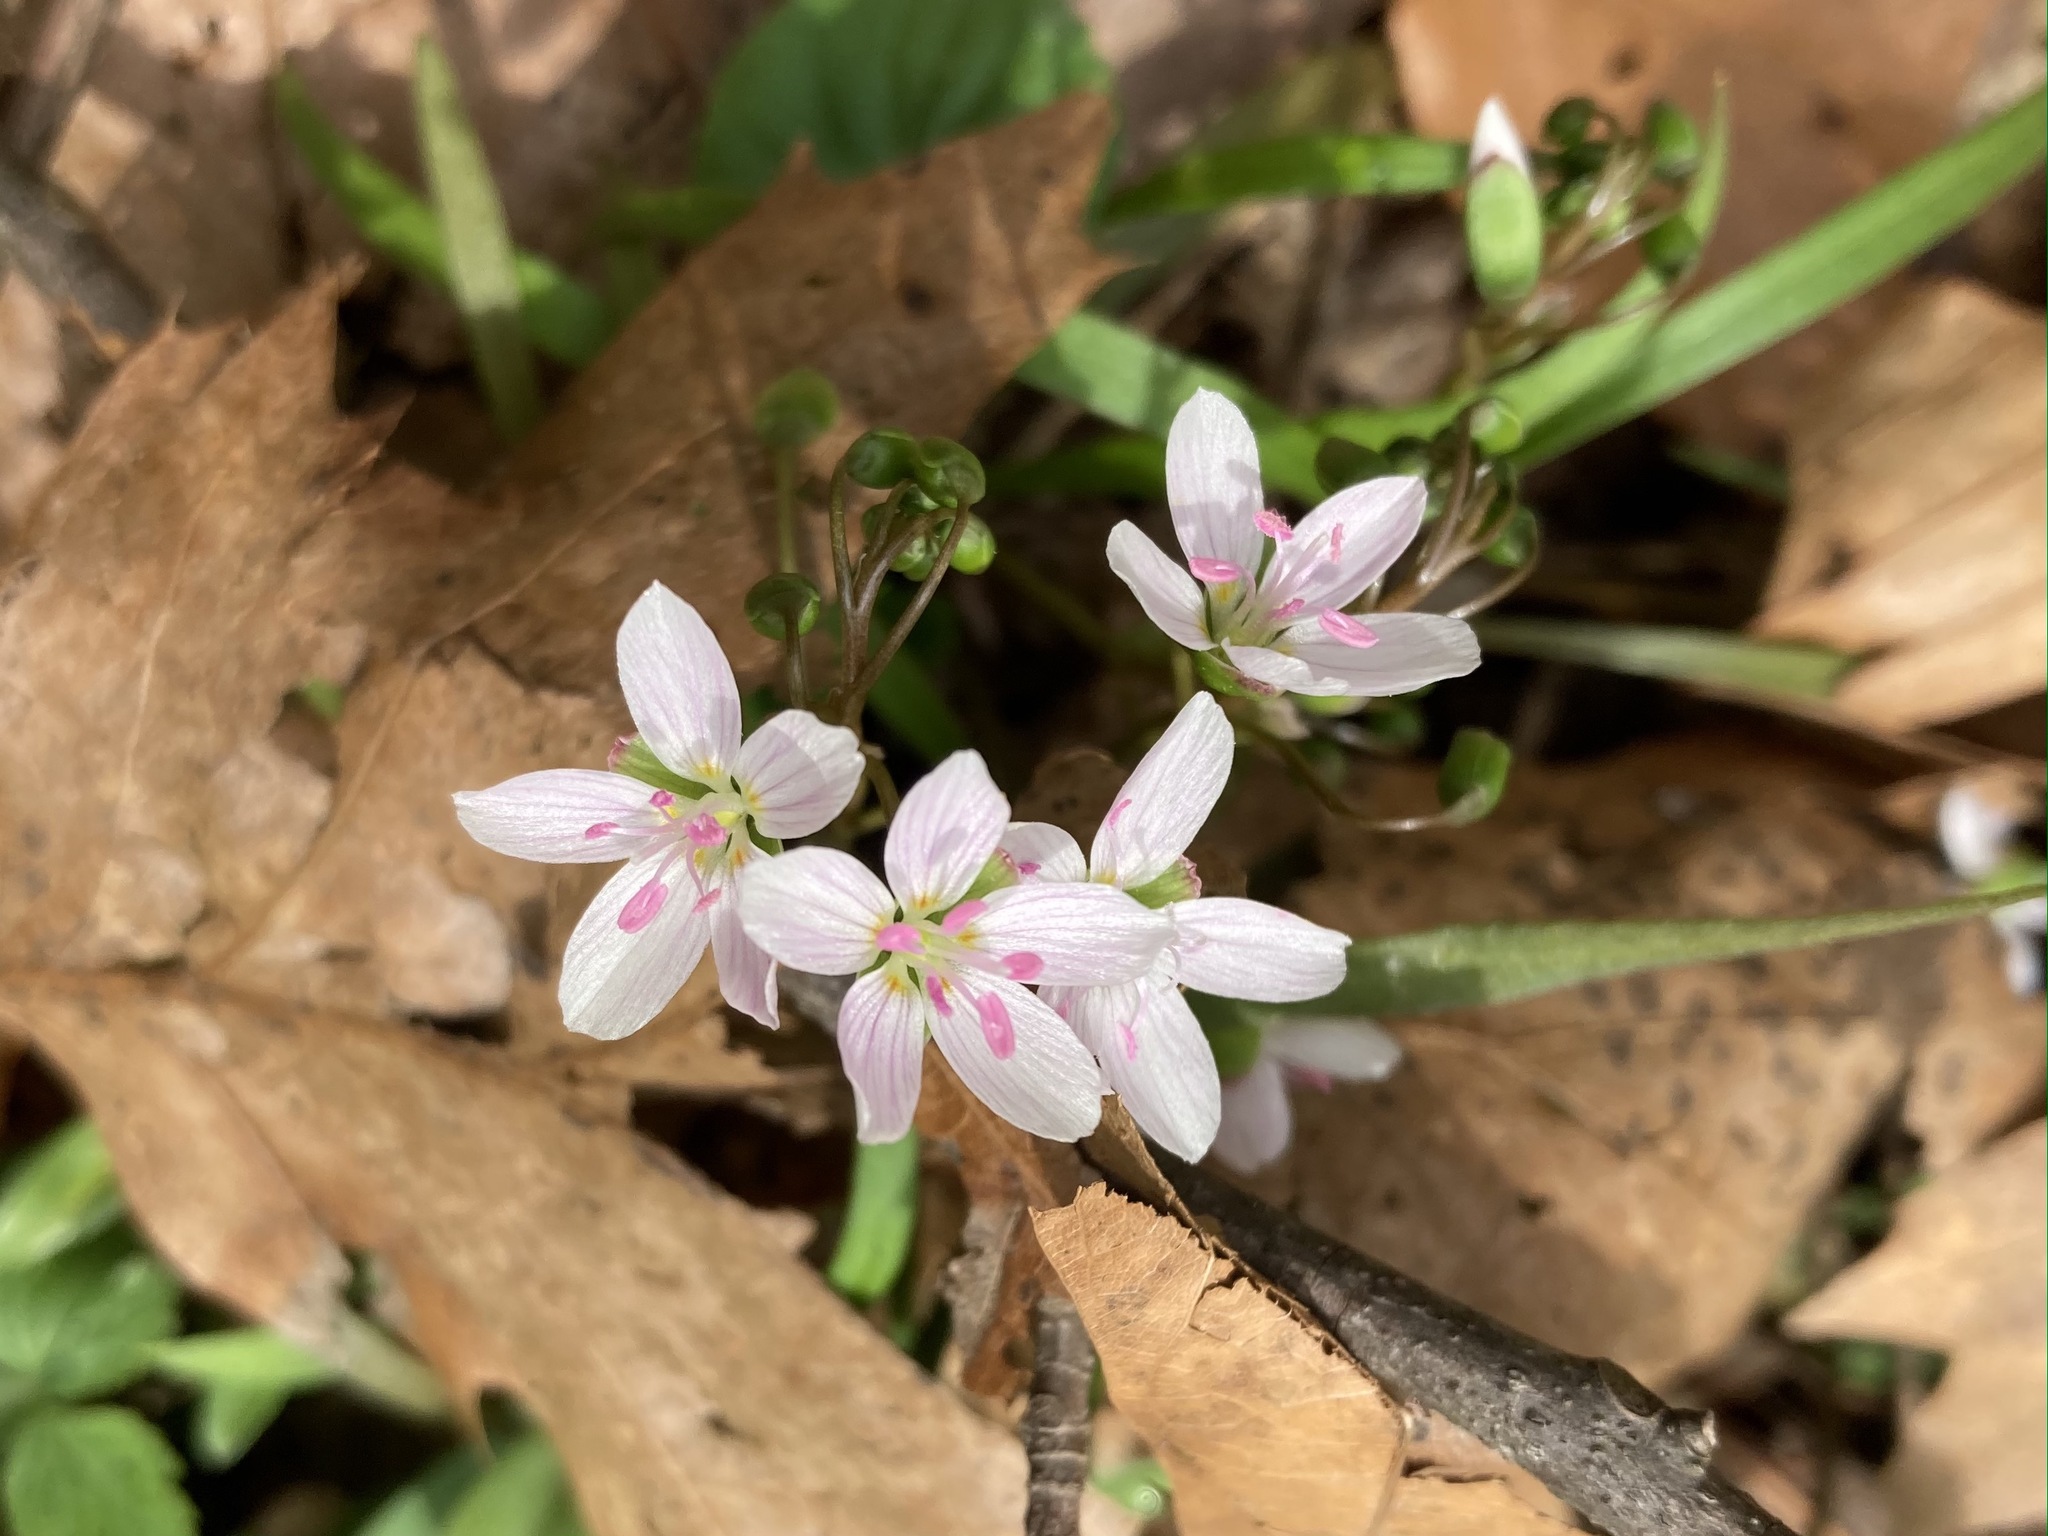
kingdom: Plantae
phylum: Tracheophyta
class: Magnoliopsida
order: Caryophyllales
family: Montiaceae
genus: Claytonia
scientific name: Claytonia virginica
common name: Virginia springbeauty
